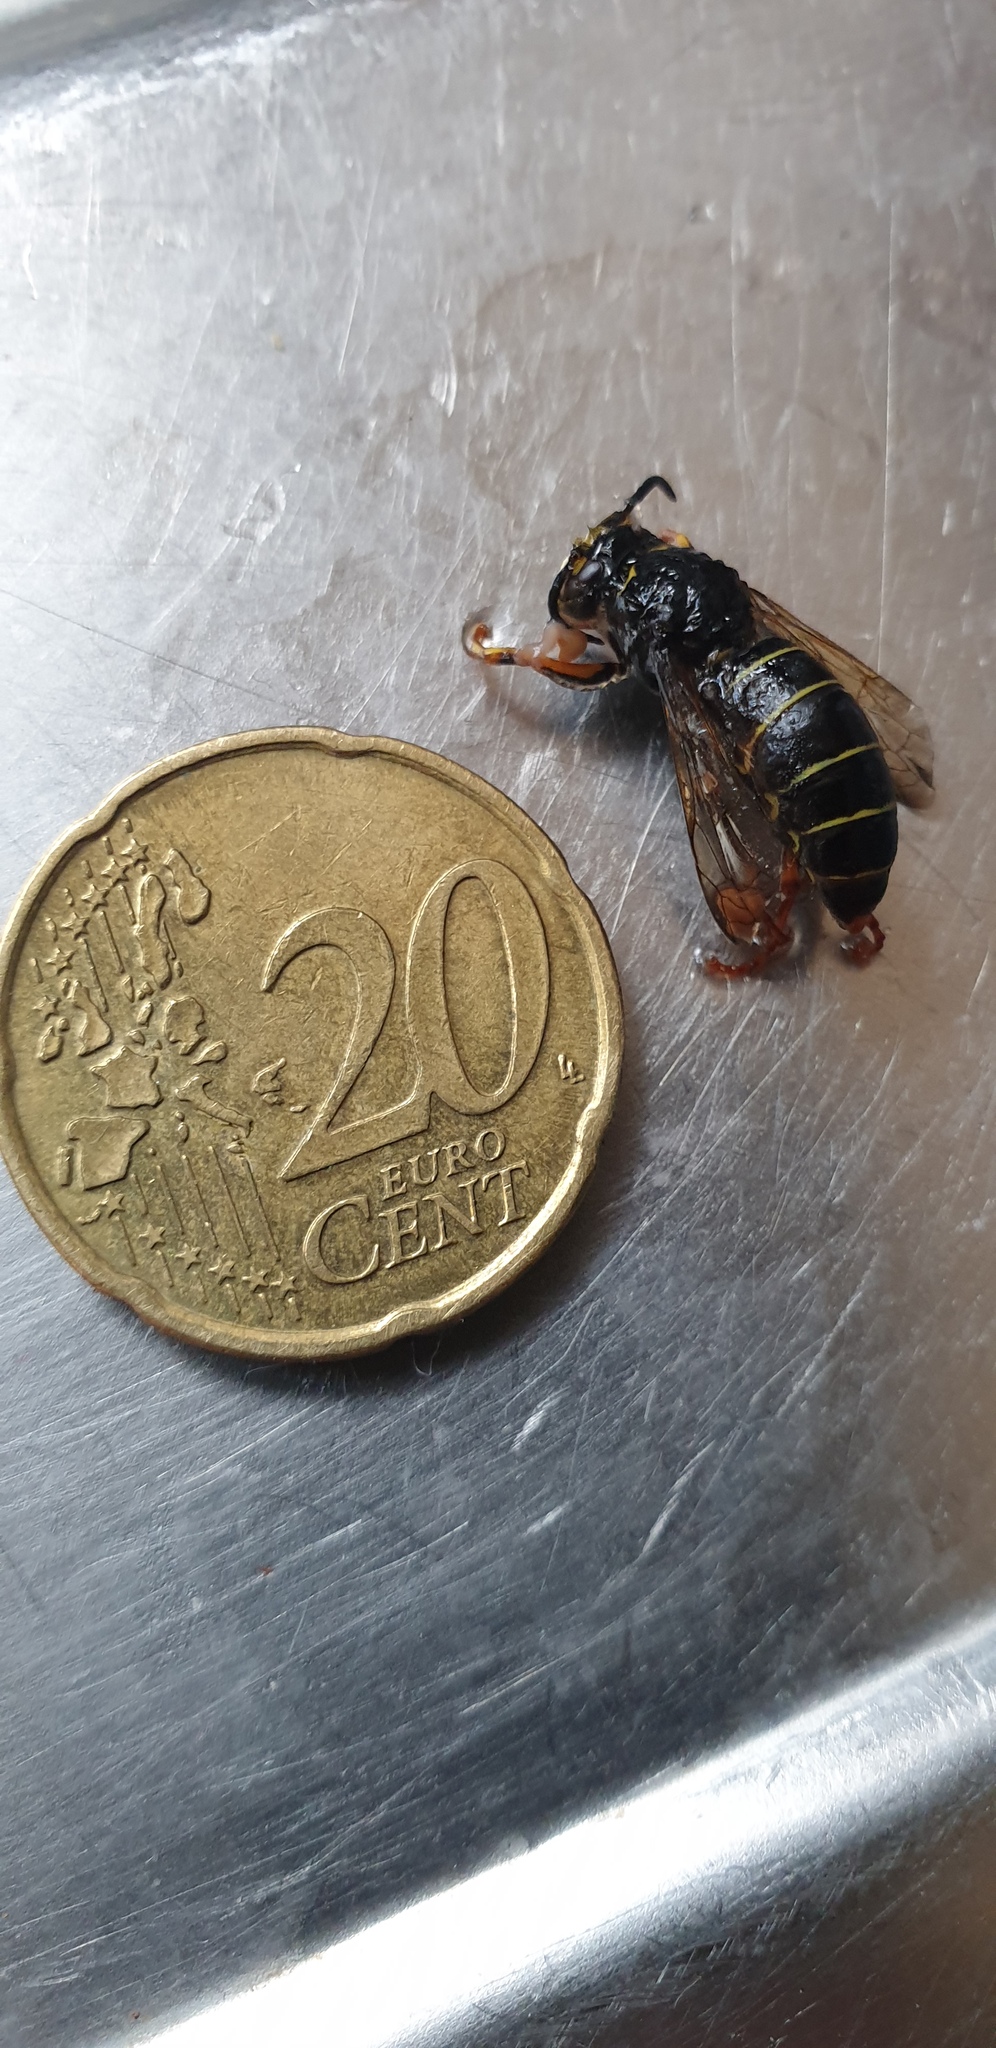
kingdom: Animalia
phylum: Arthropoda
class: Insecta
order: Hymenoptera
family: Vespidae
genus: Dolichovespula
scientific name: Dolichovespula media
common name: Median wasp
